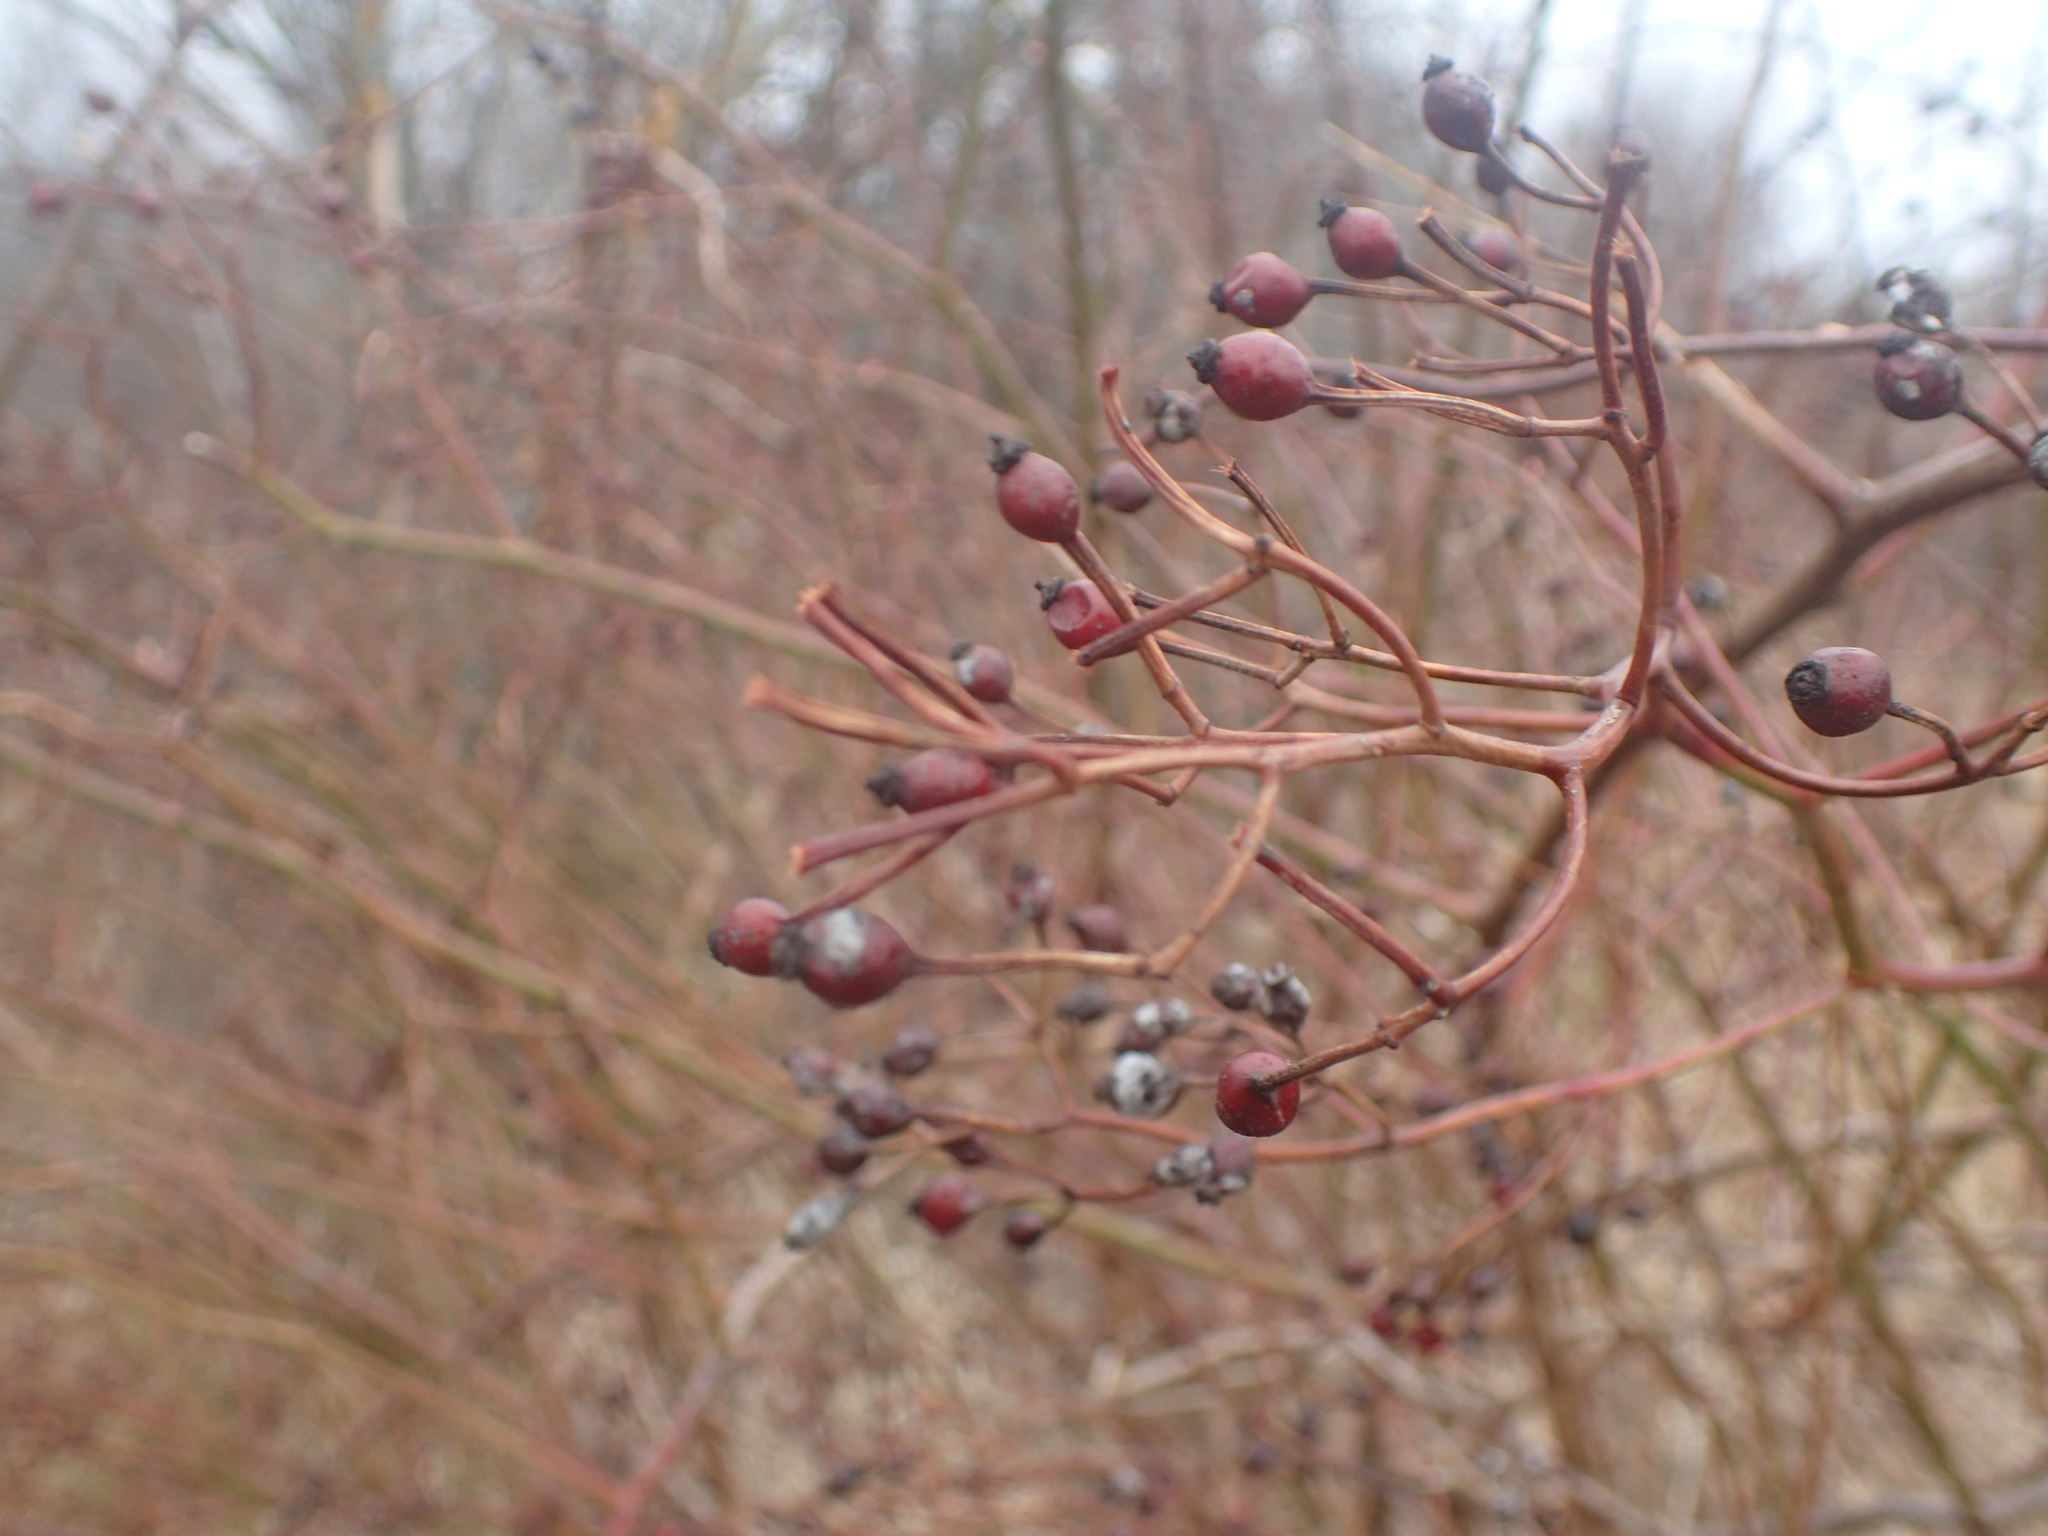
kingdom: Plantae
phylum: Tracheophyta
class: Magnoliopsida
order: Rosales
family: Rosaceae
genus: Rosa
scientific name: Rosa multiflora
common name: Multiflora rose
